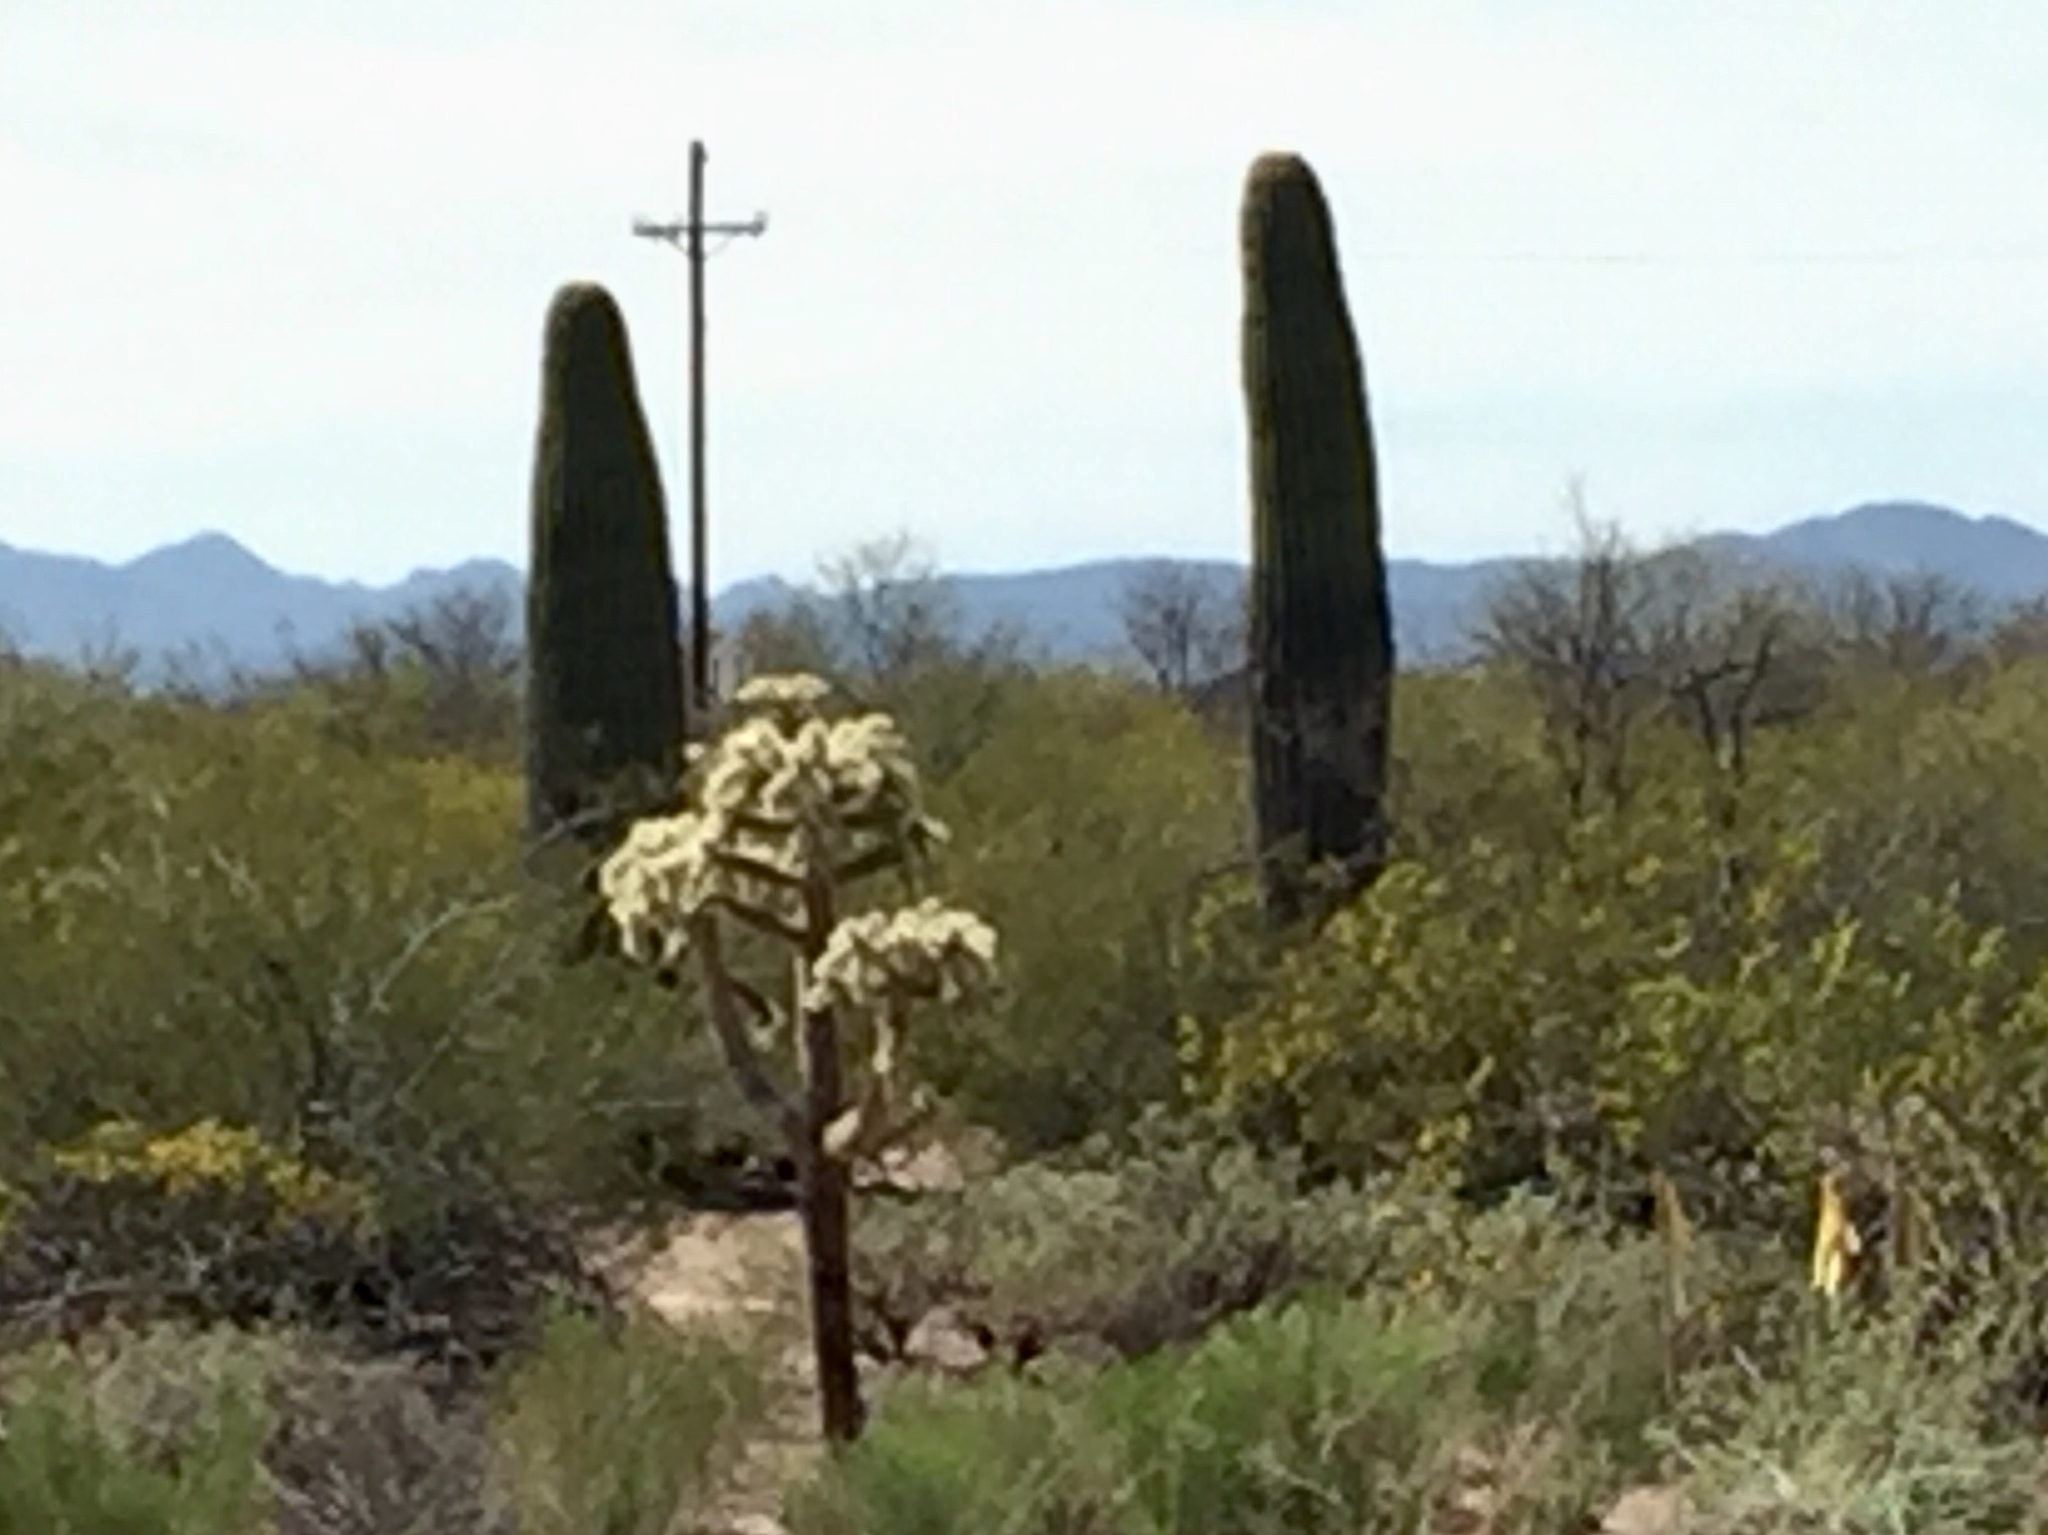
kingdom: Plantae
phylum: Tracheophyta
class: Magnoliopsida
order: Caryophyllales
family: Cactaceae
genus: Cylindropuntia
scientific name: Cylindropuntia fulgida
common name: Jumping cholla
